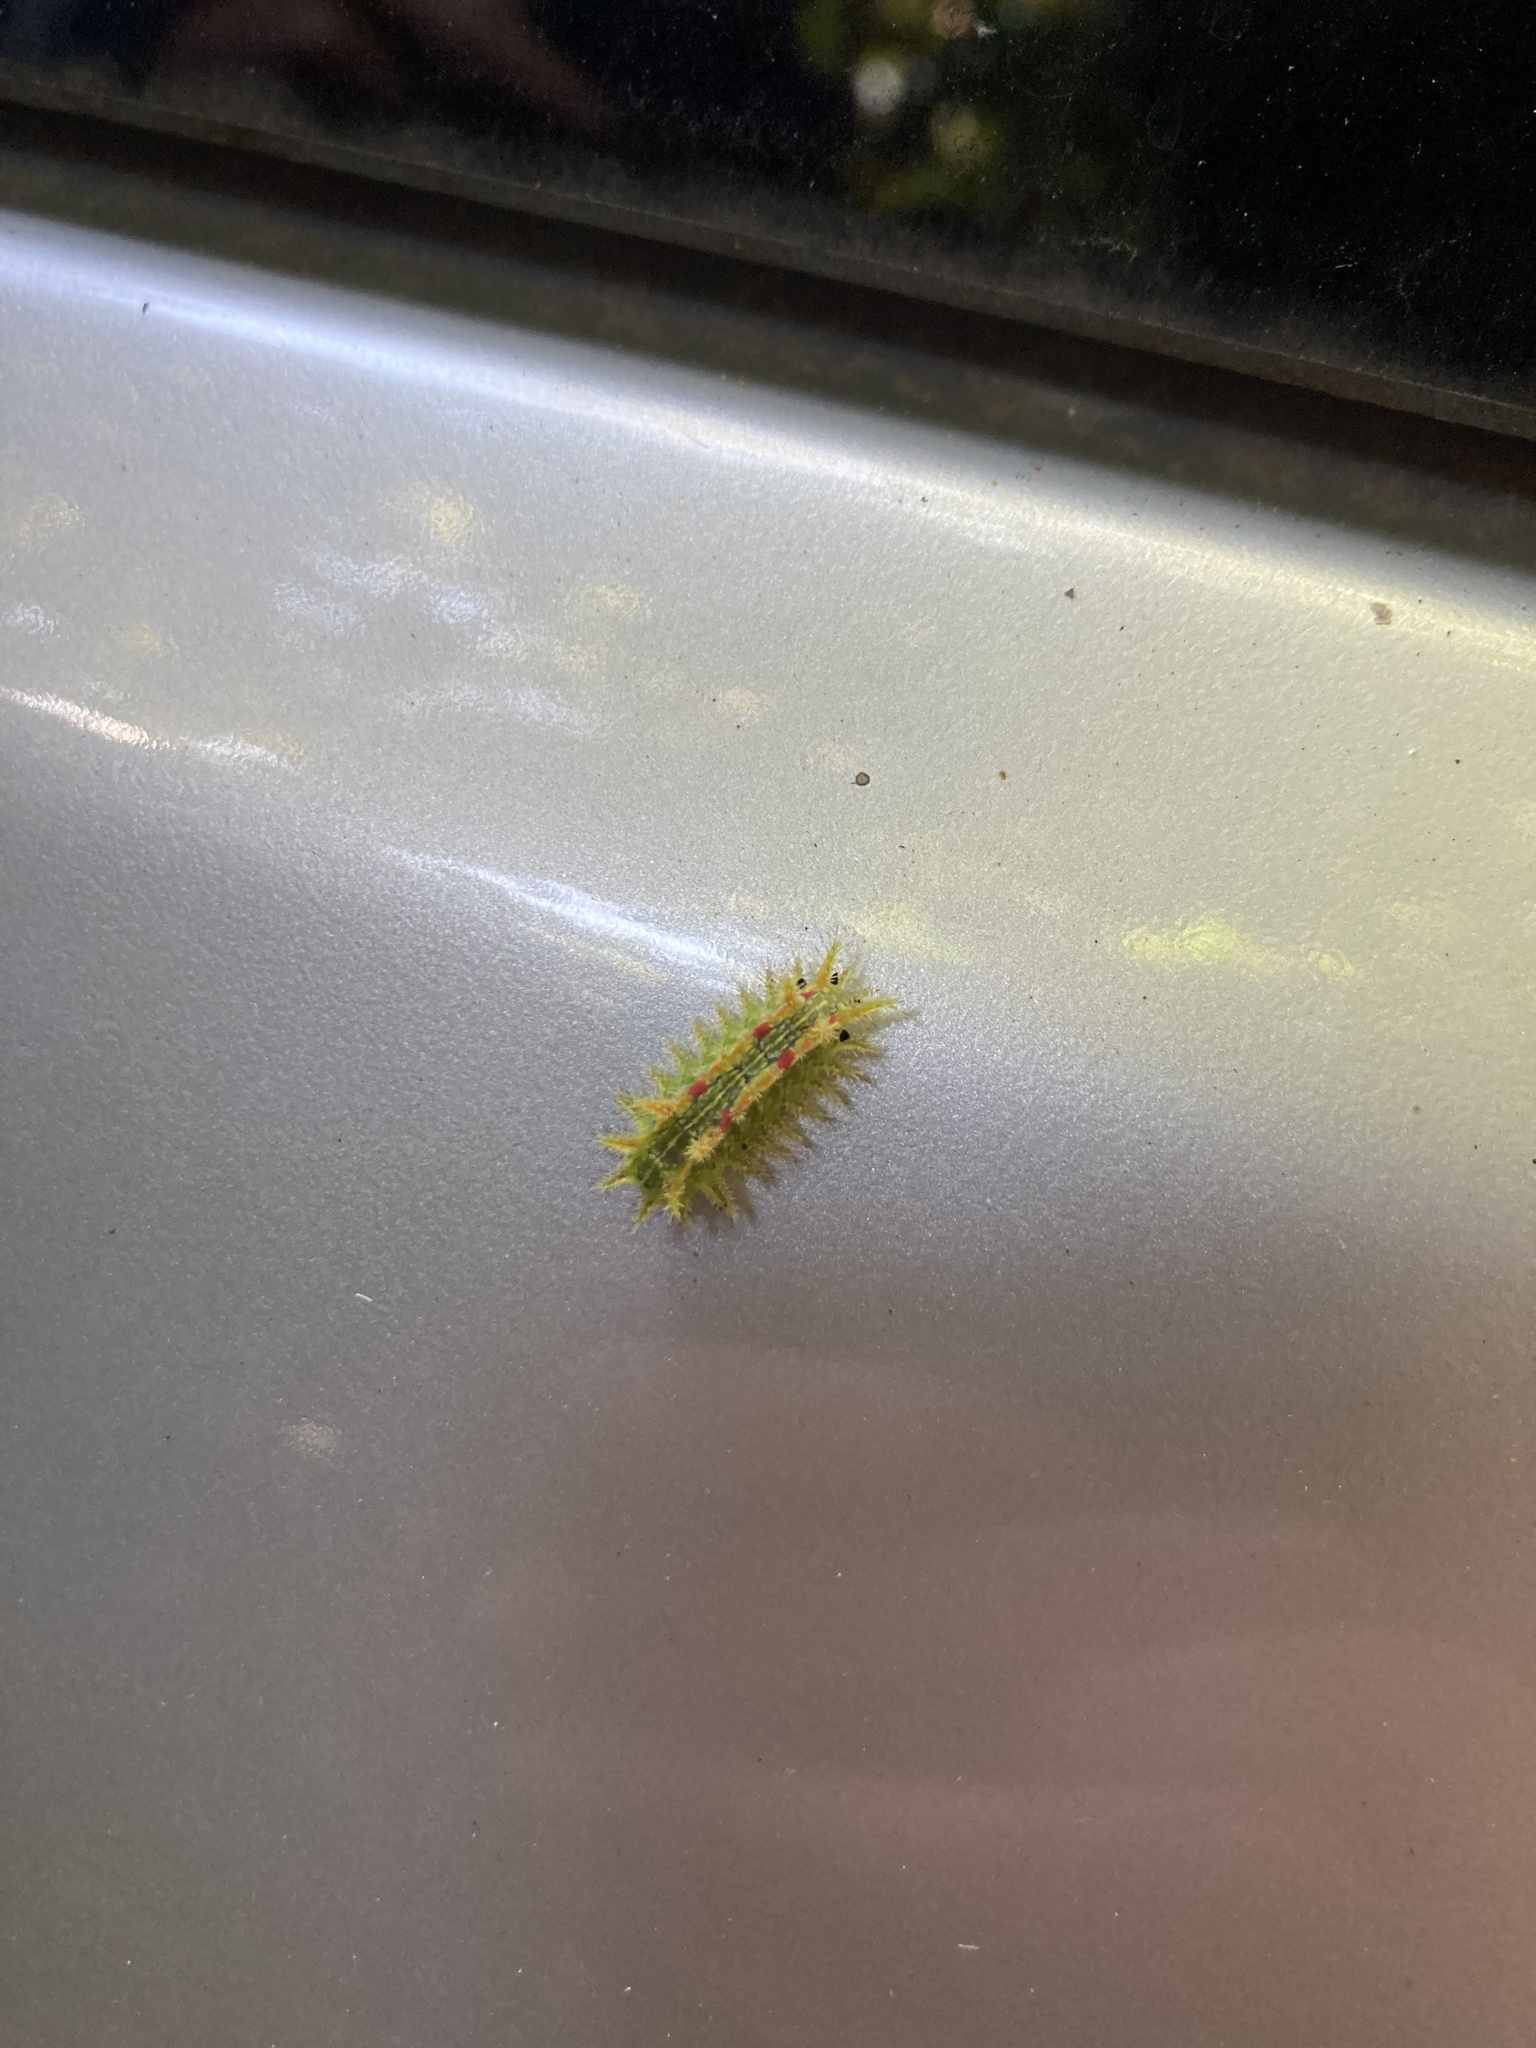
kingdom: Animalia
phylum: Arthropoda
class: Insecta
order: Lepidoptera
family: Limacodidae
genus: Euclea
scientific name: Euclea delphinii
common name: Spiny oak-slug moth
